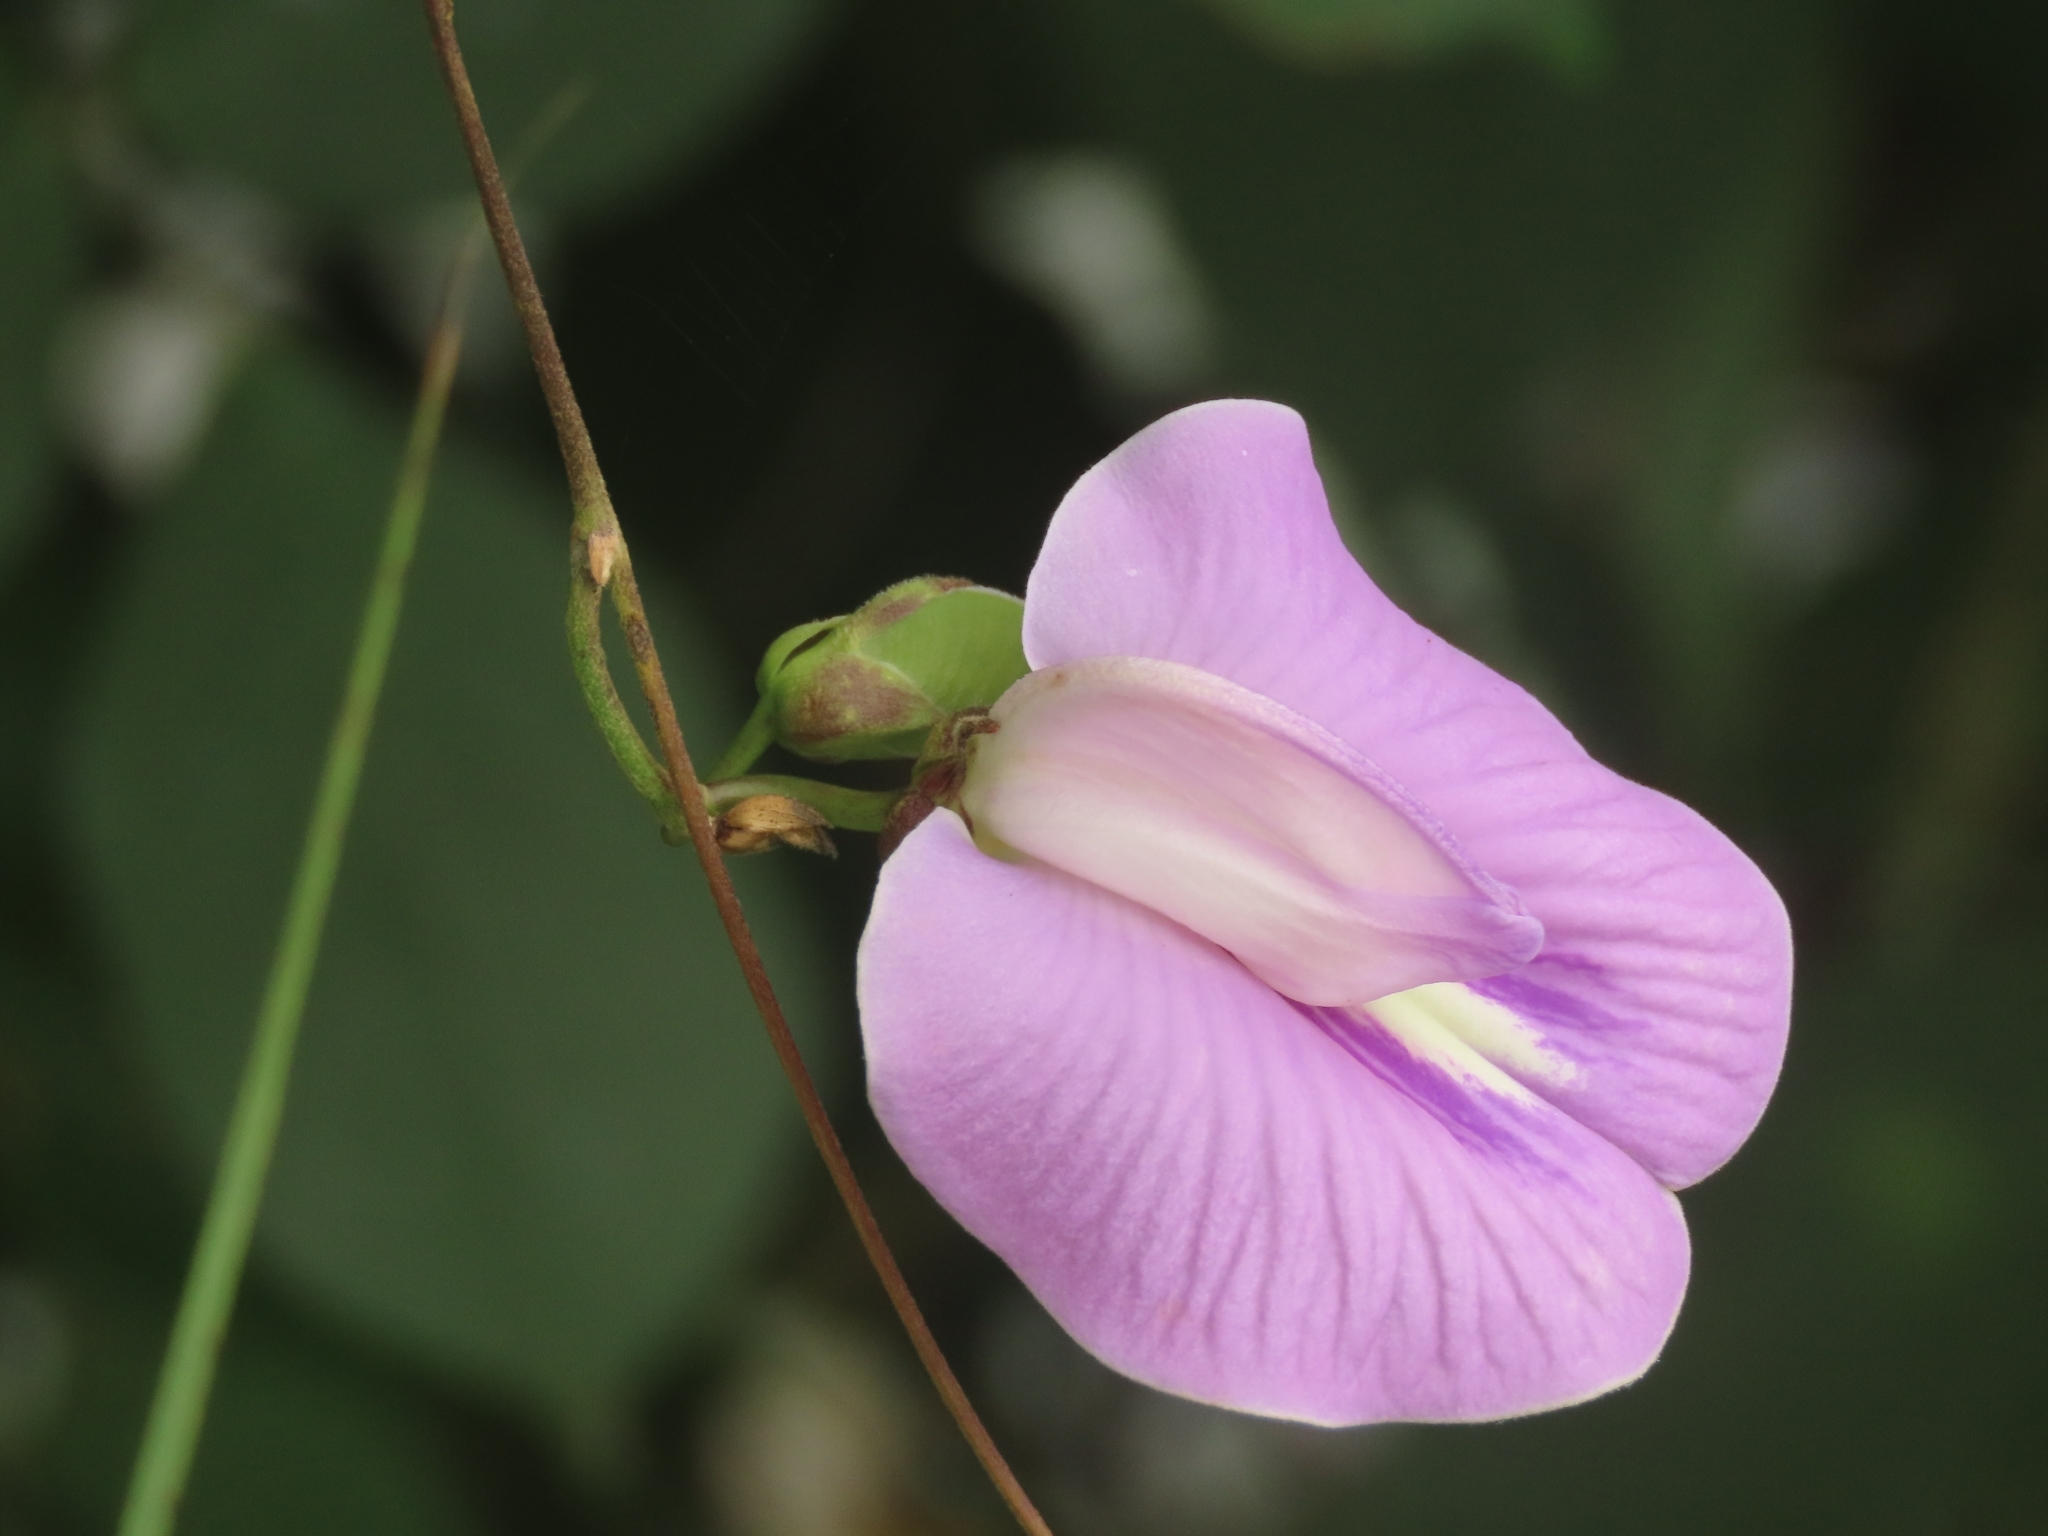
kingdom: Plantae
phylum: Tracheophyta
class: Magnoliopsida
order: Fabales
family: Fabaceae
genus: Centrosema
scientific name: Centrosema pubescens
